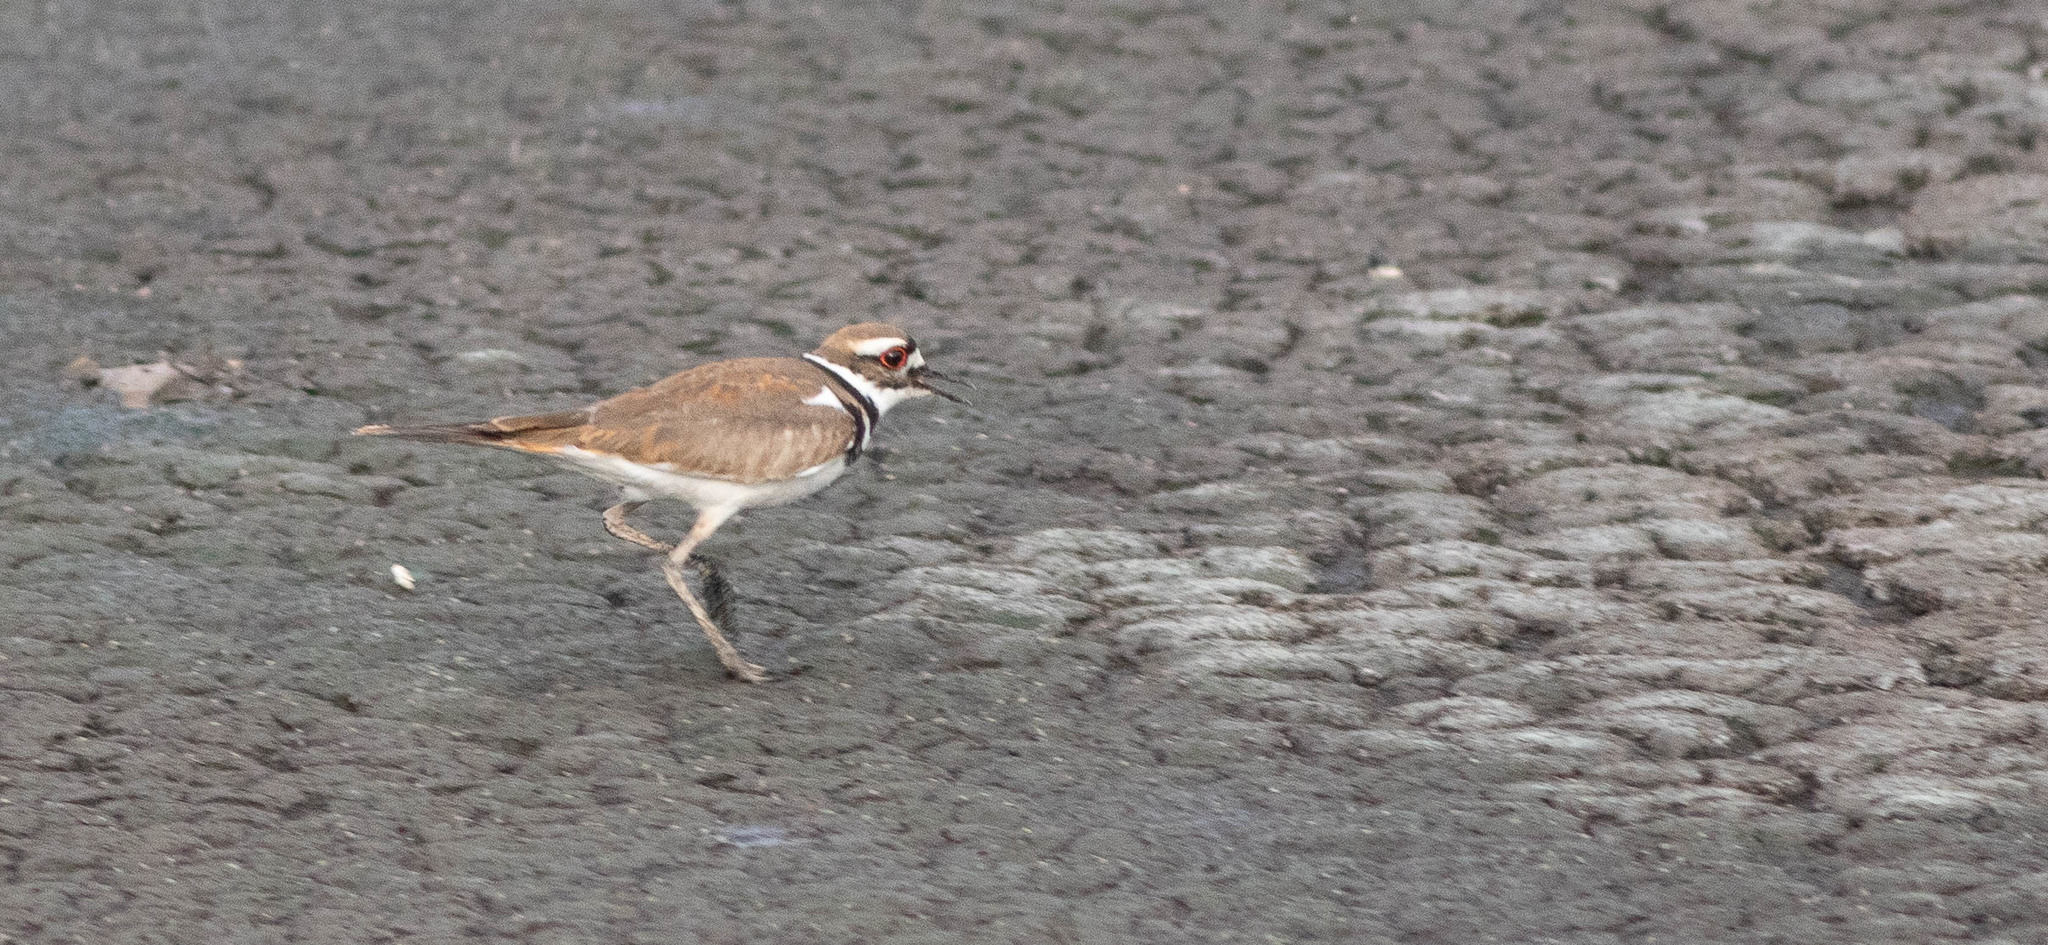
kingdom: Animalia
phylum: Chordata
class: Aves
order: Charadriiformes
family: Charadriidae
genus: Charadrius
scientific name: Charadrius vociferus
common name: Killdeer
